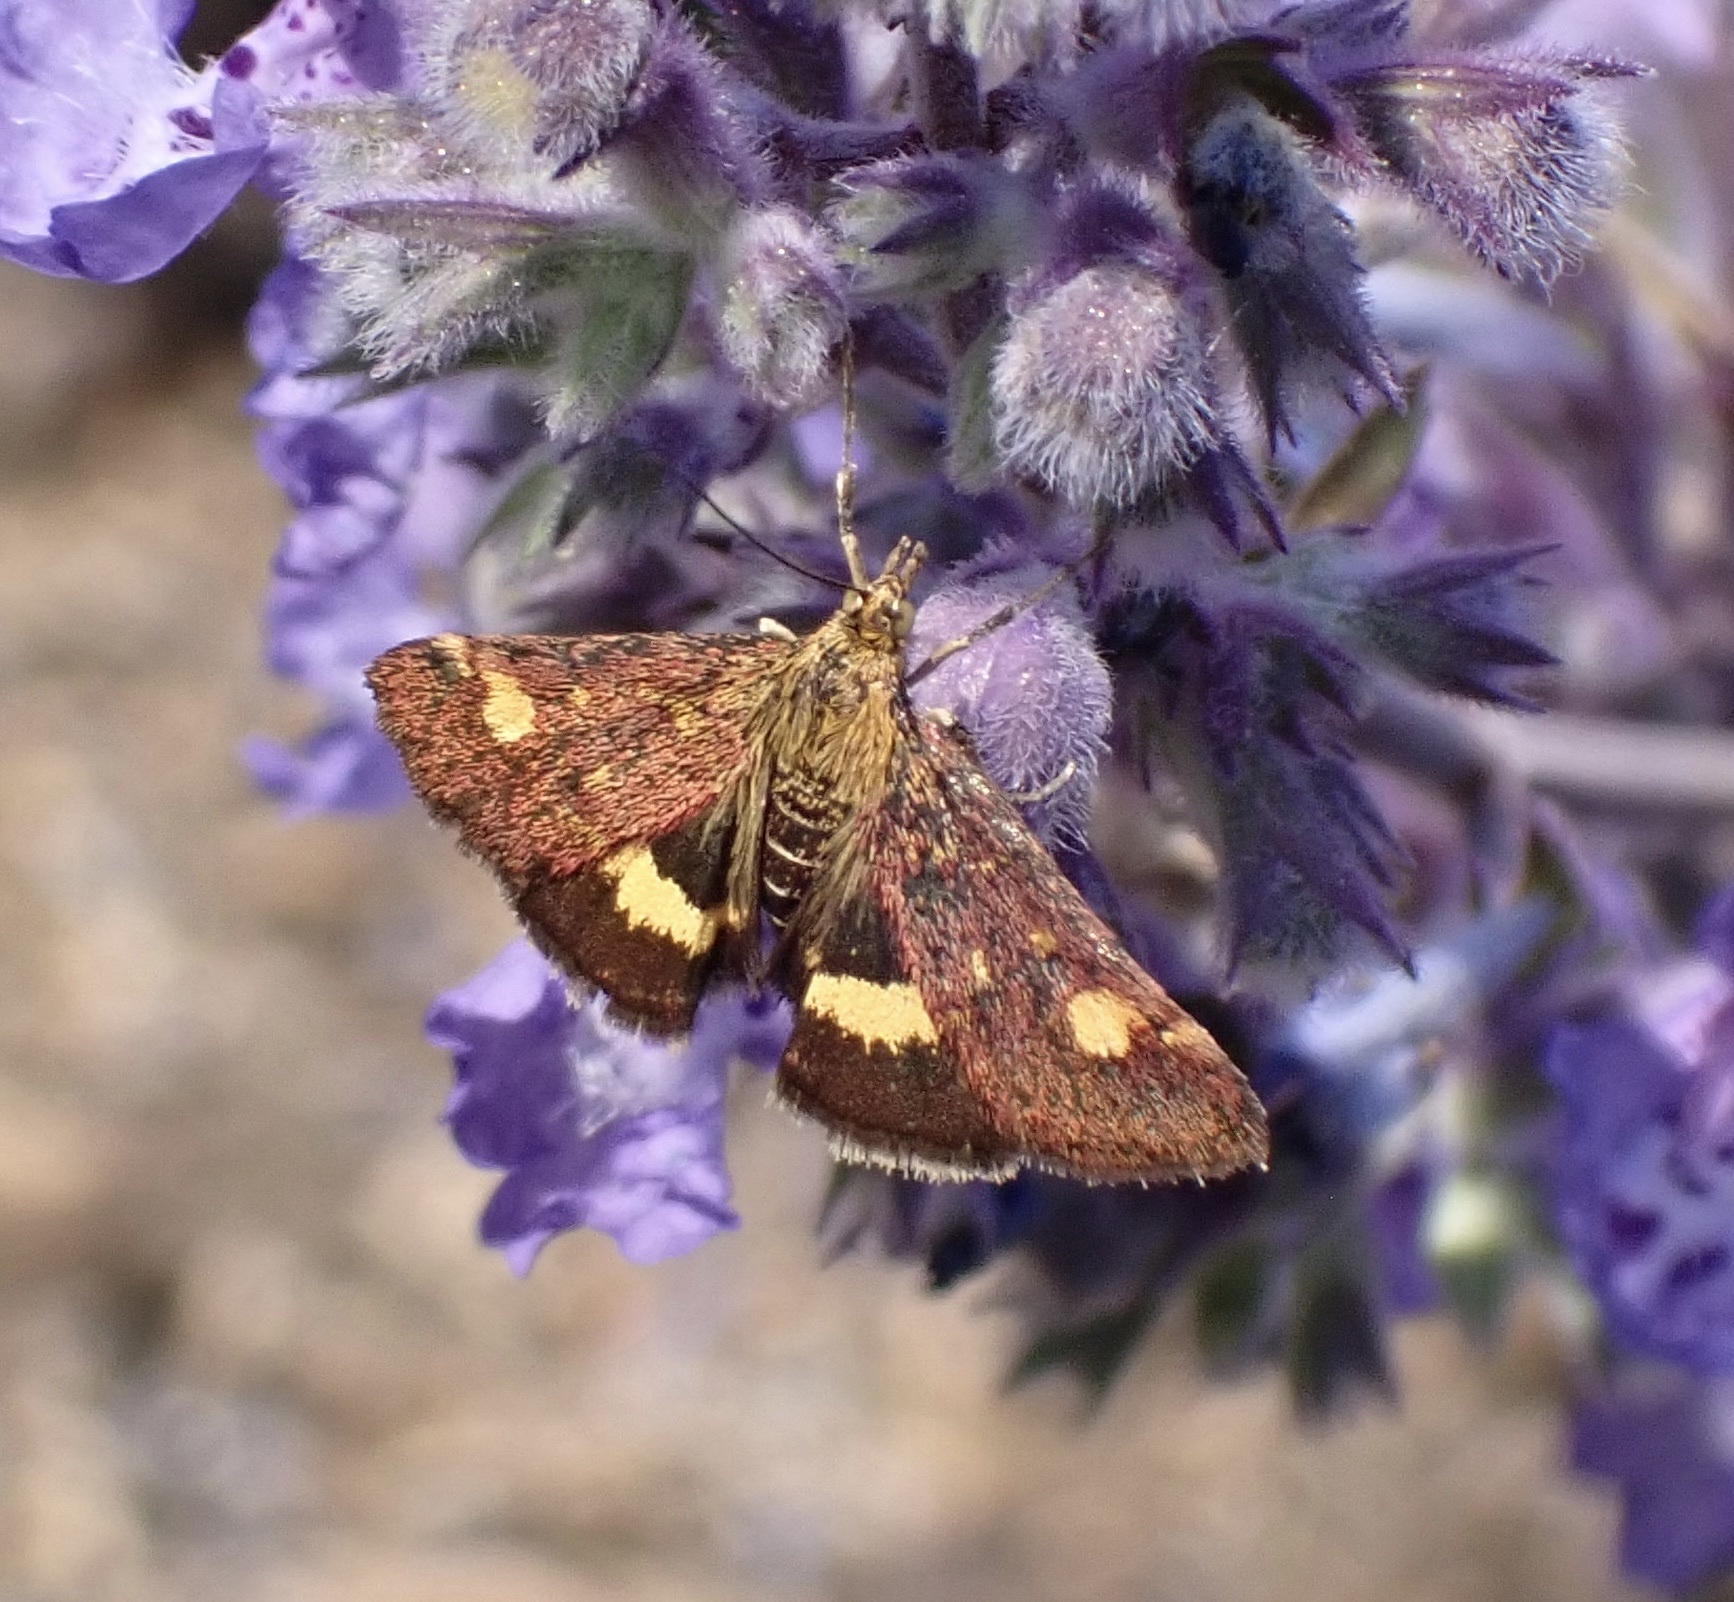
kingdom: Animalia
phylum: Arthropoda
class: Insecta
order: Lepidoptera
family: Crambidae
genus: Pyrausta
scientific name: Pyrausta aurata
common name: Small purple & gold
